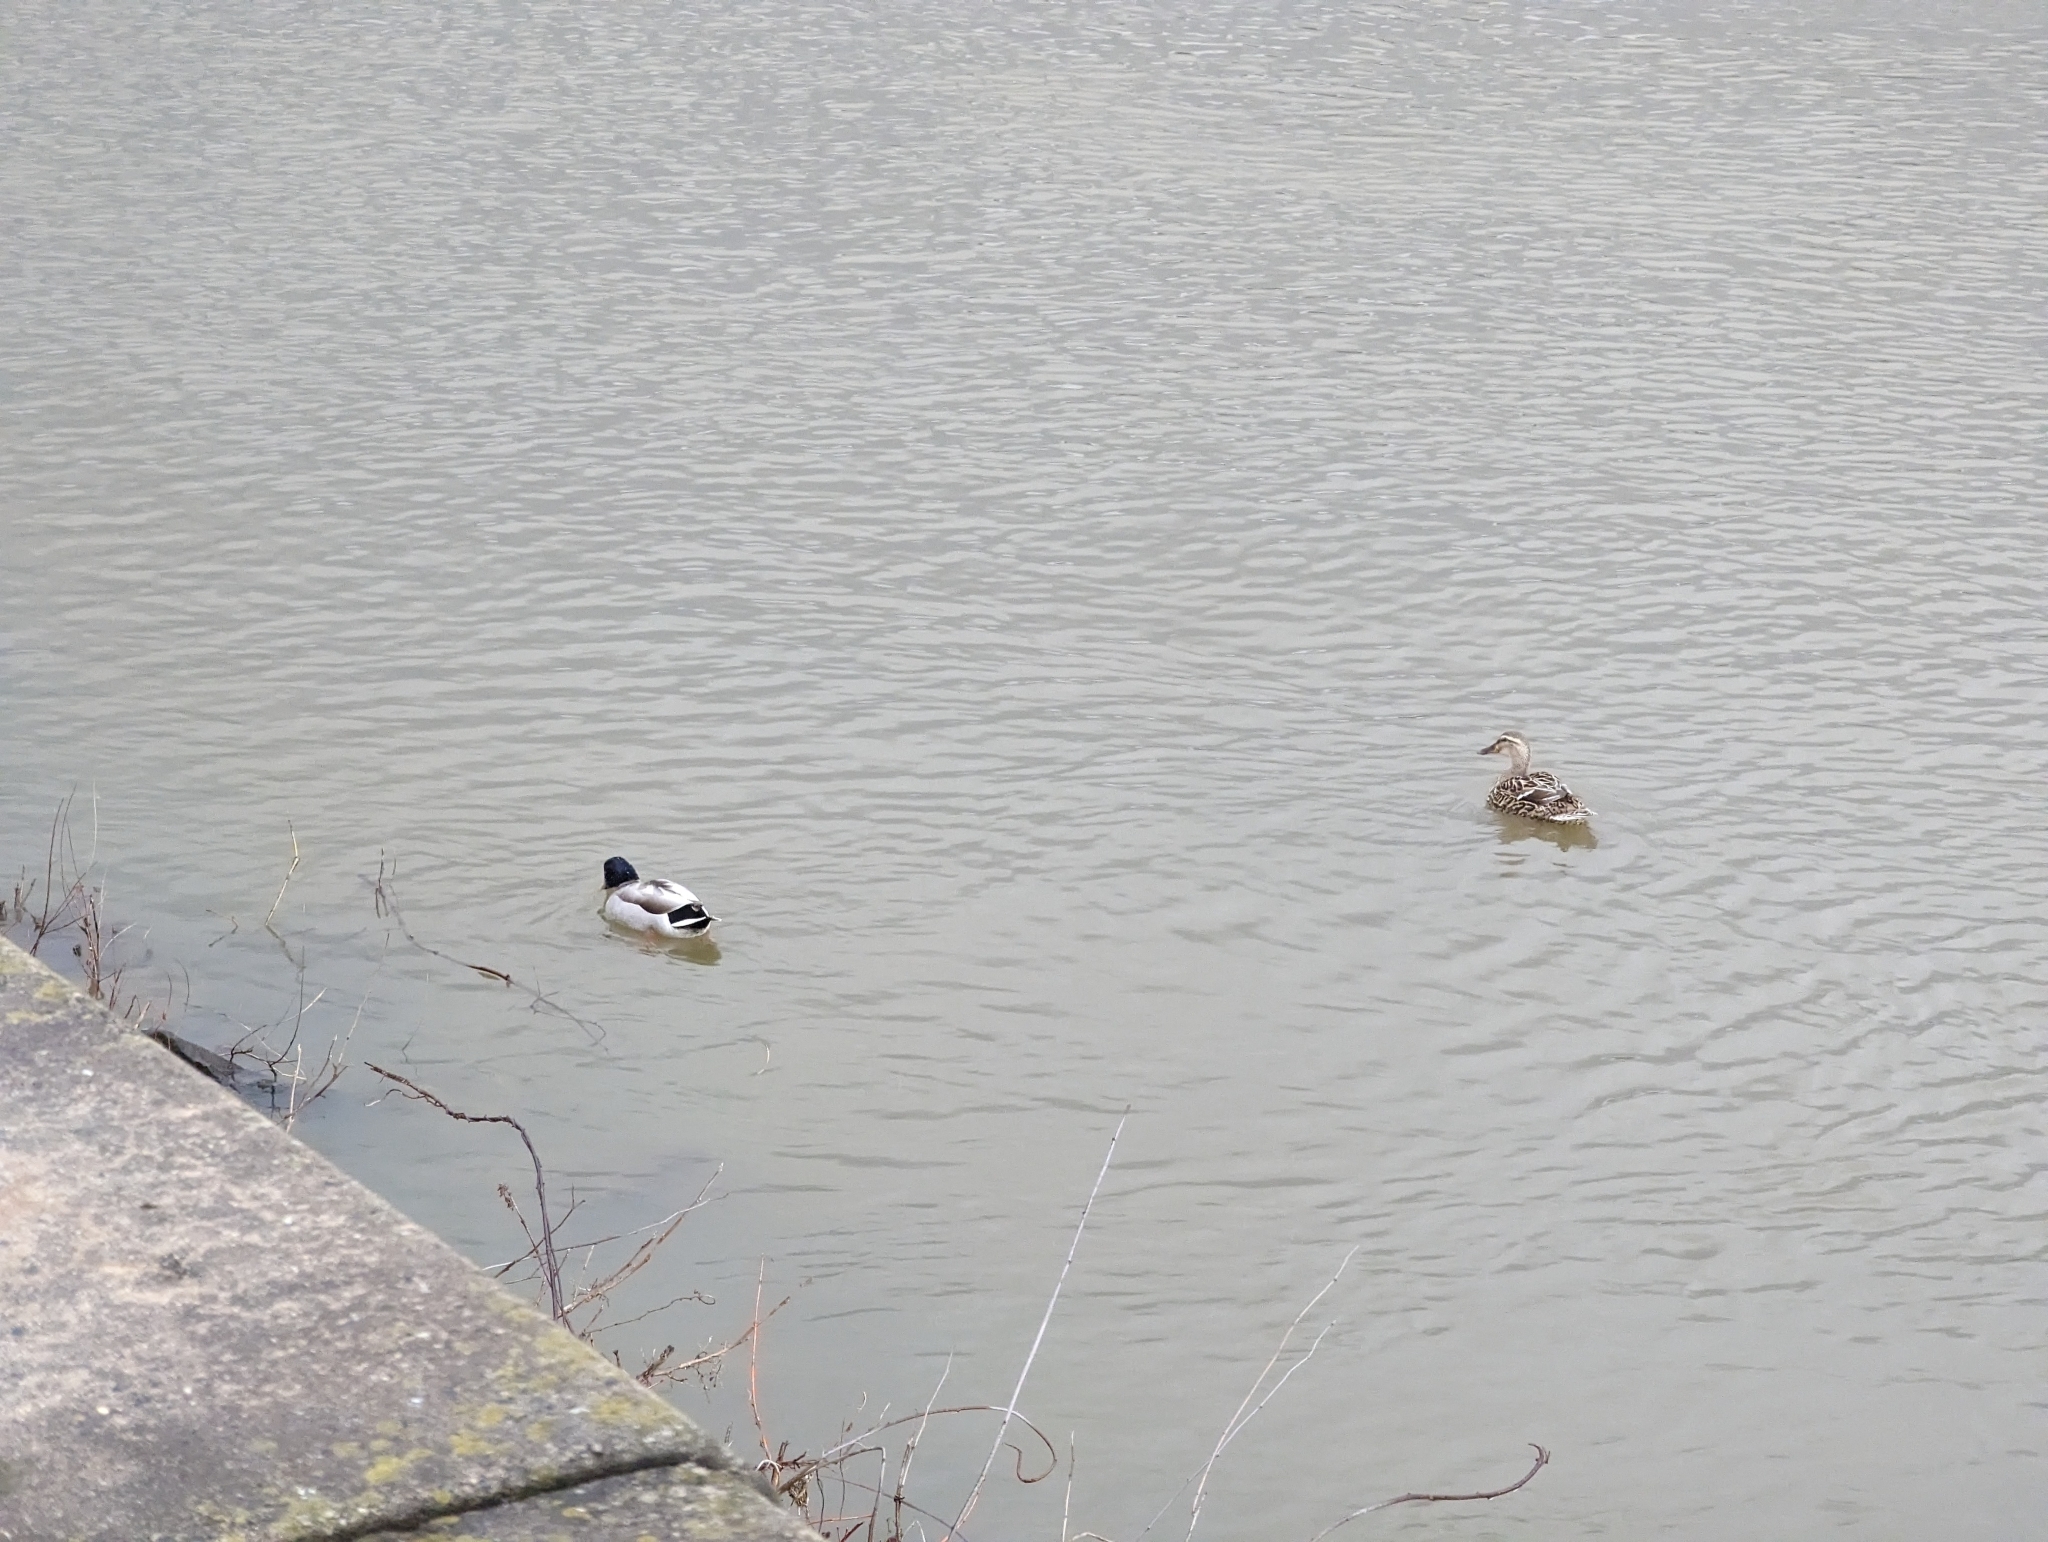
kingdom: Animalia
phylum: Chordata
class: Aves
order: Anseriformes
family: Anatidae
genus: Anas
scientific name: Anas platyrhynchos
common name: Mallard
